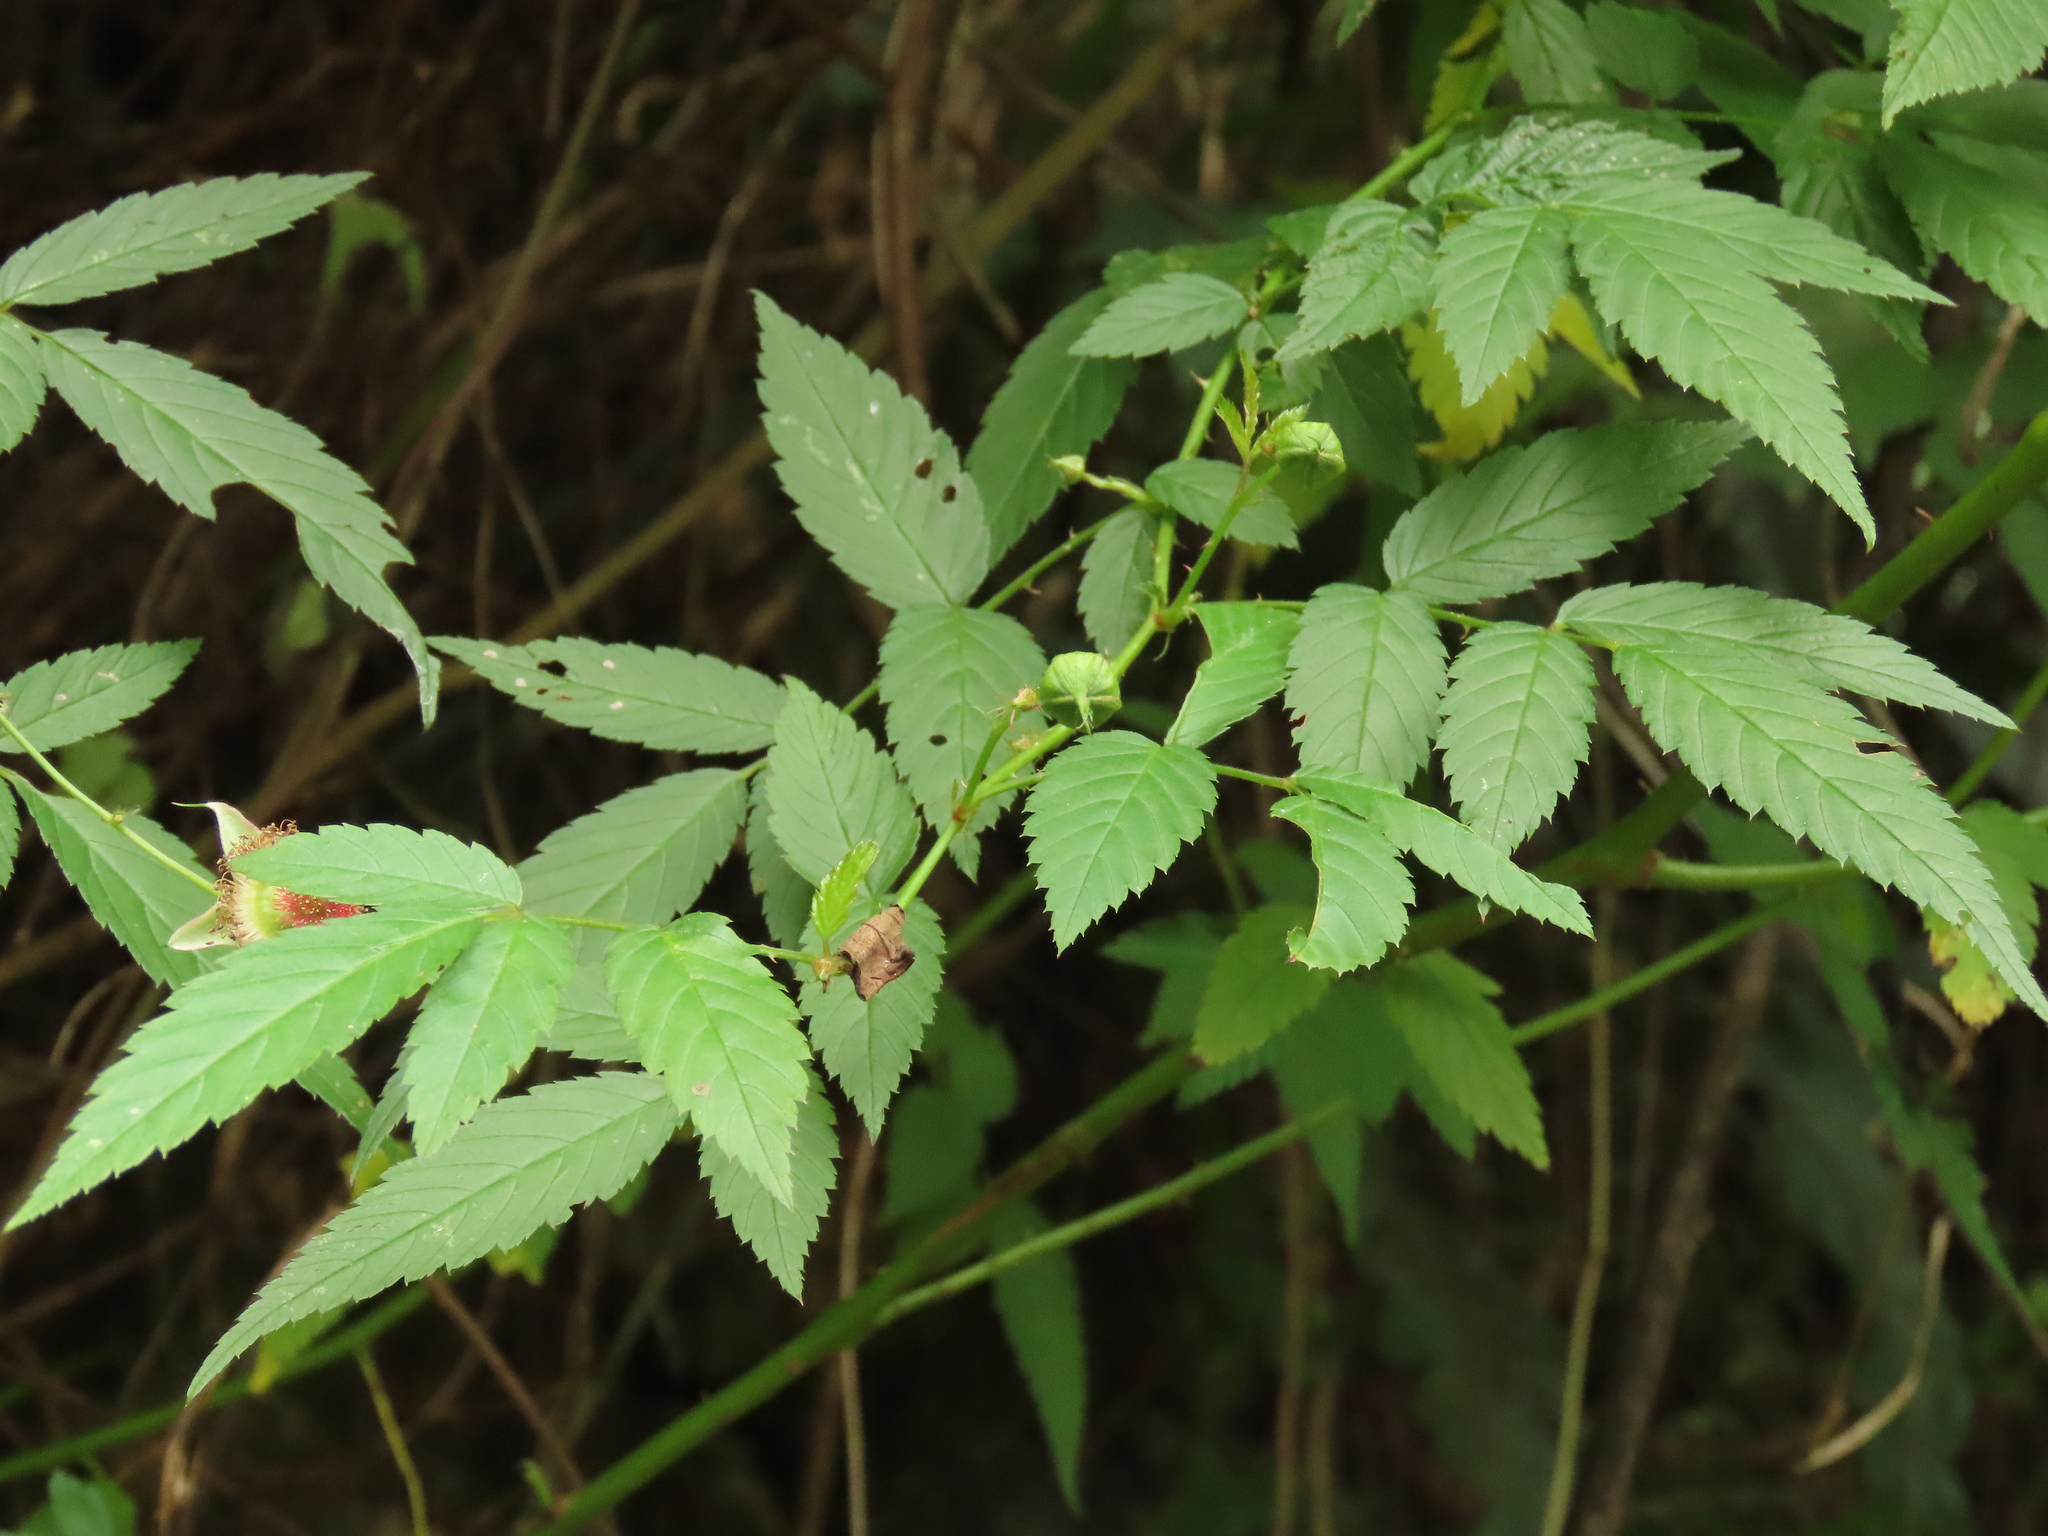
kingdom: Plantae
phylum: Tracheophyta
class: Magnoliopsida
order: Rosales
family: Rosaceae
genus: Rubus
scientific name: Rubus croceacanthus
